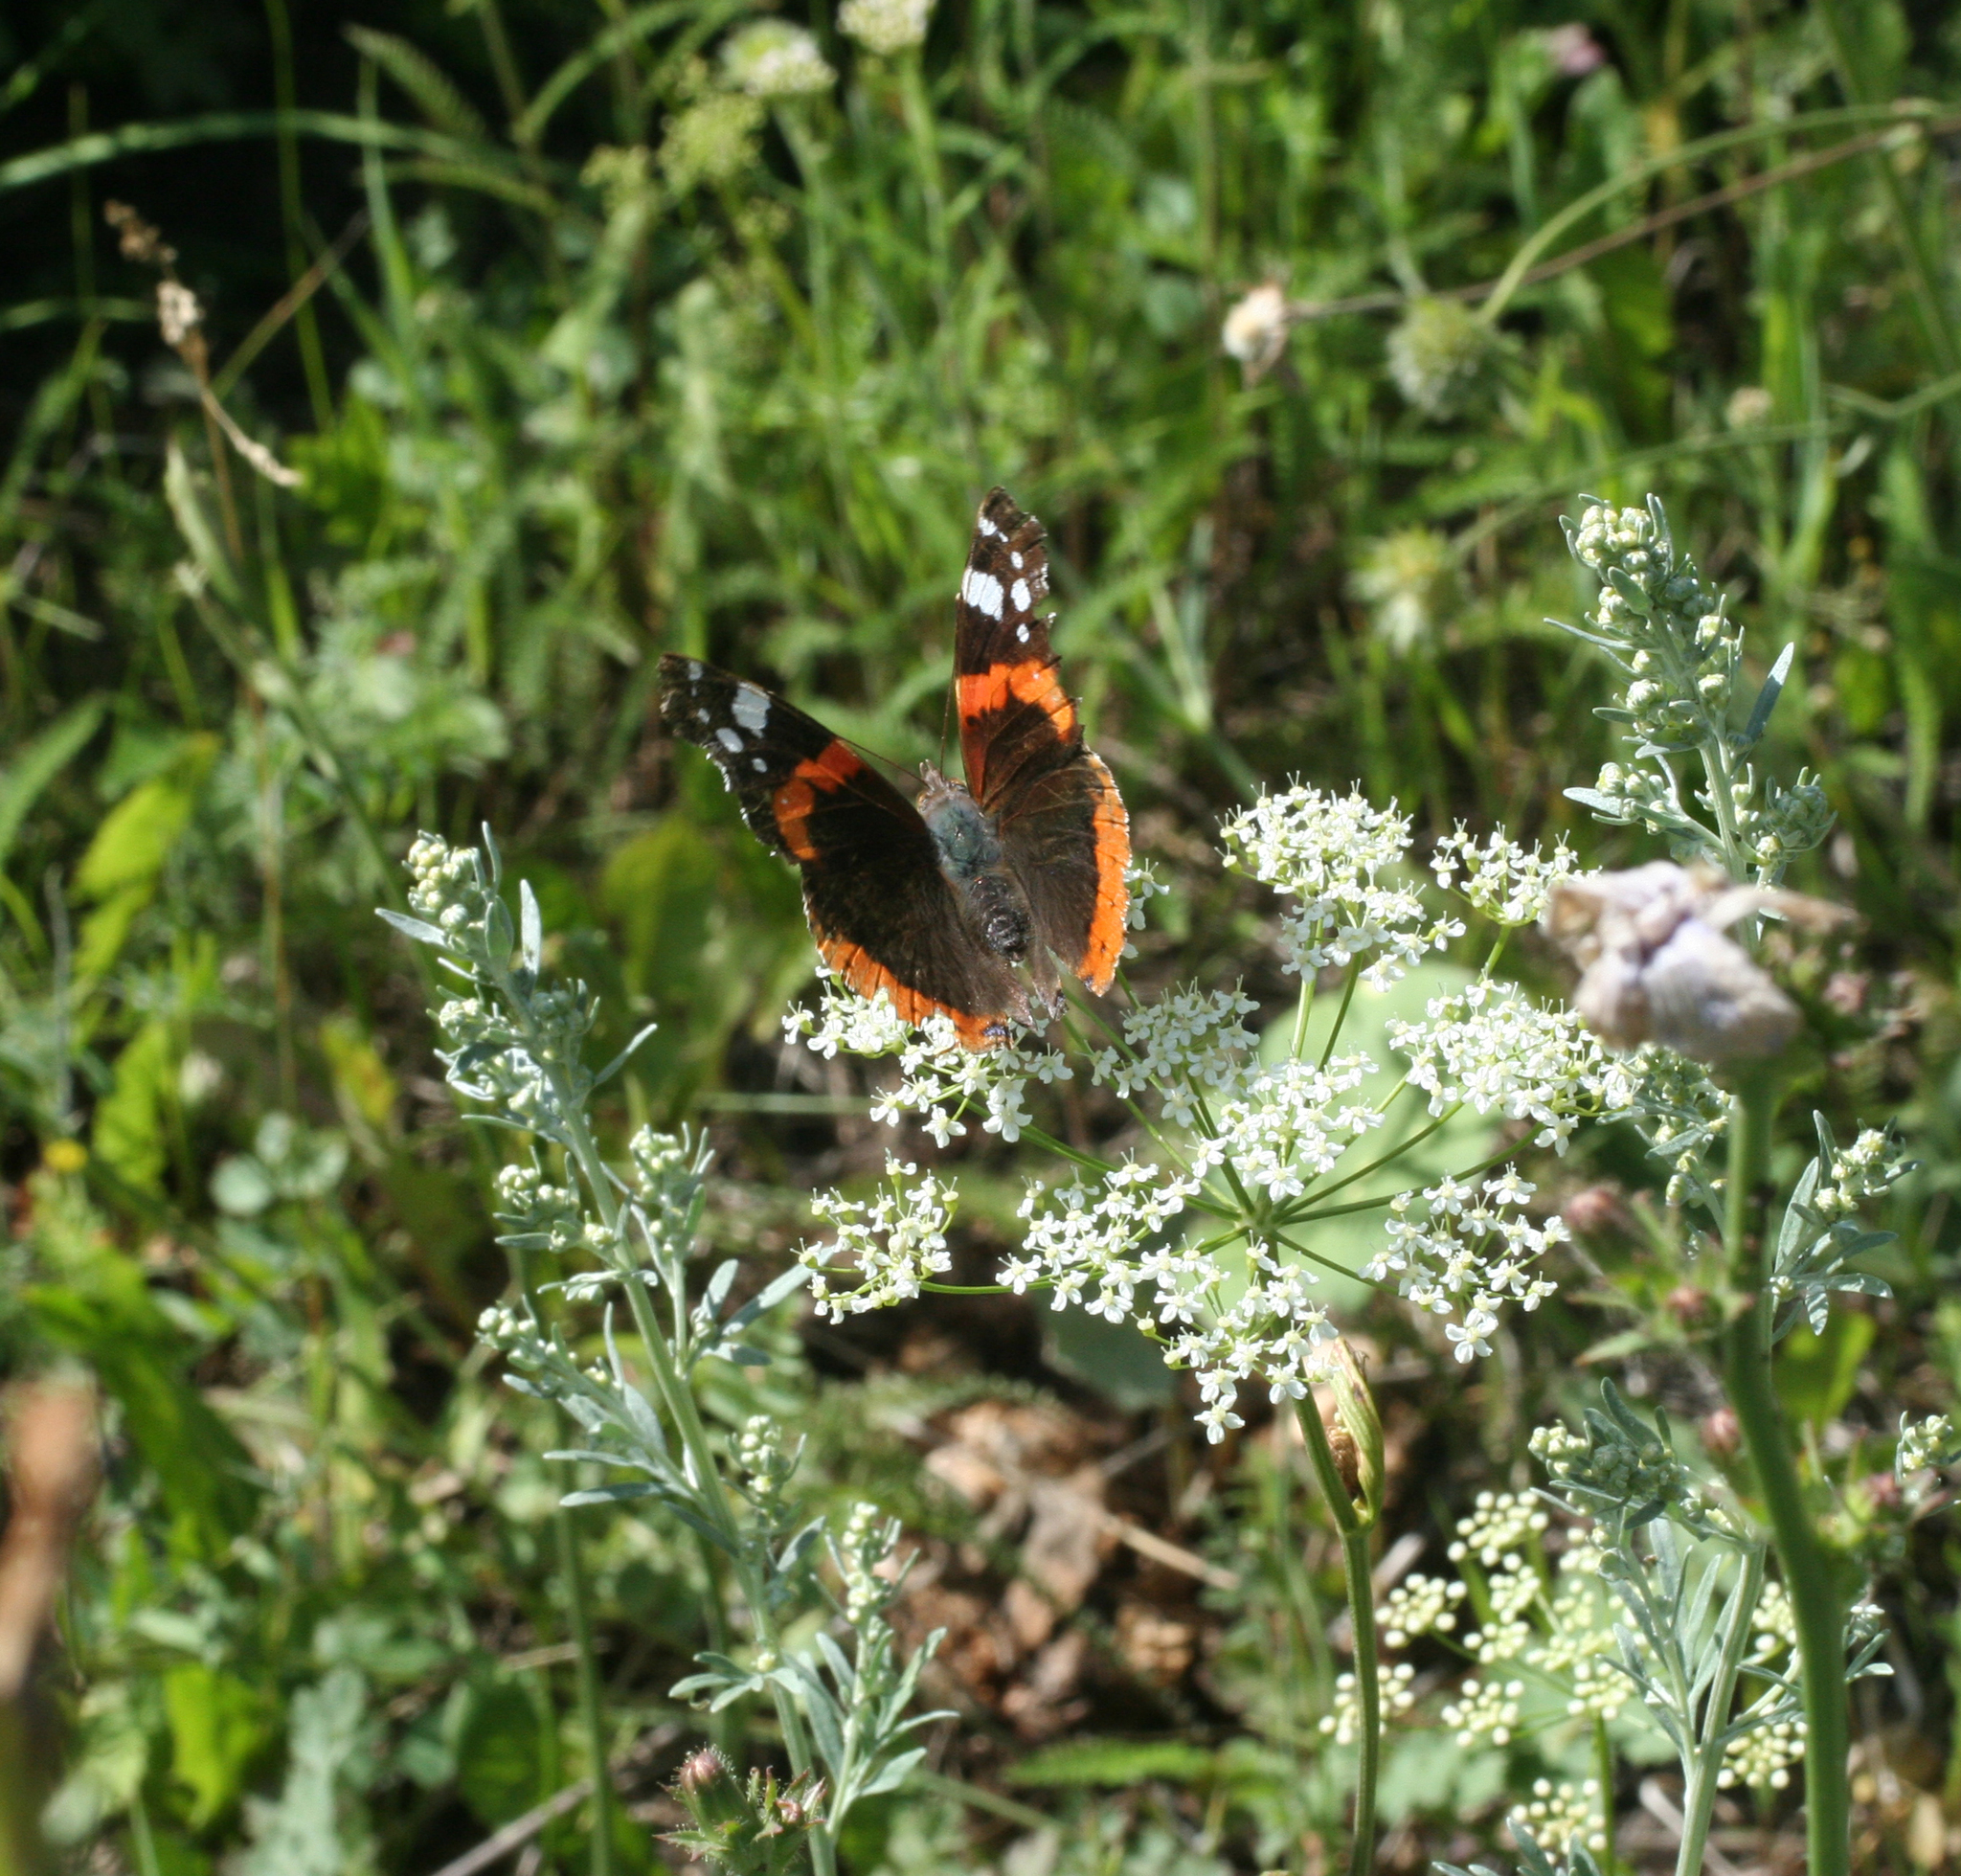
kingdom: Animalia
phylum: Arthropoda
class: Insecta
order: Lepidoptera
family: Nymphalidae
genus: Vanessa
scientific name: Vanessa atalanta
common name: Red admiral
